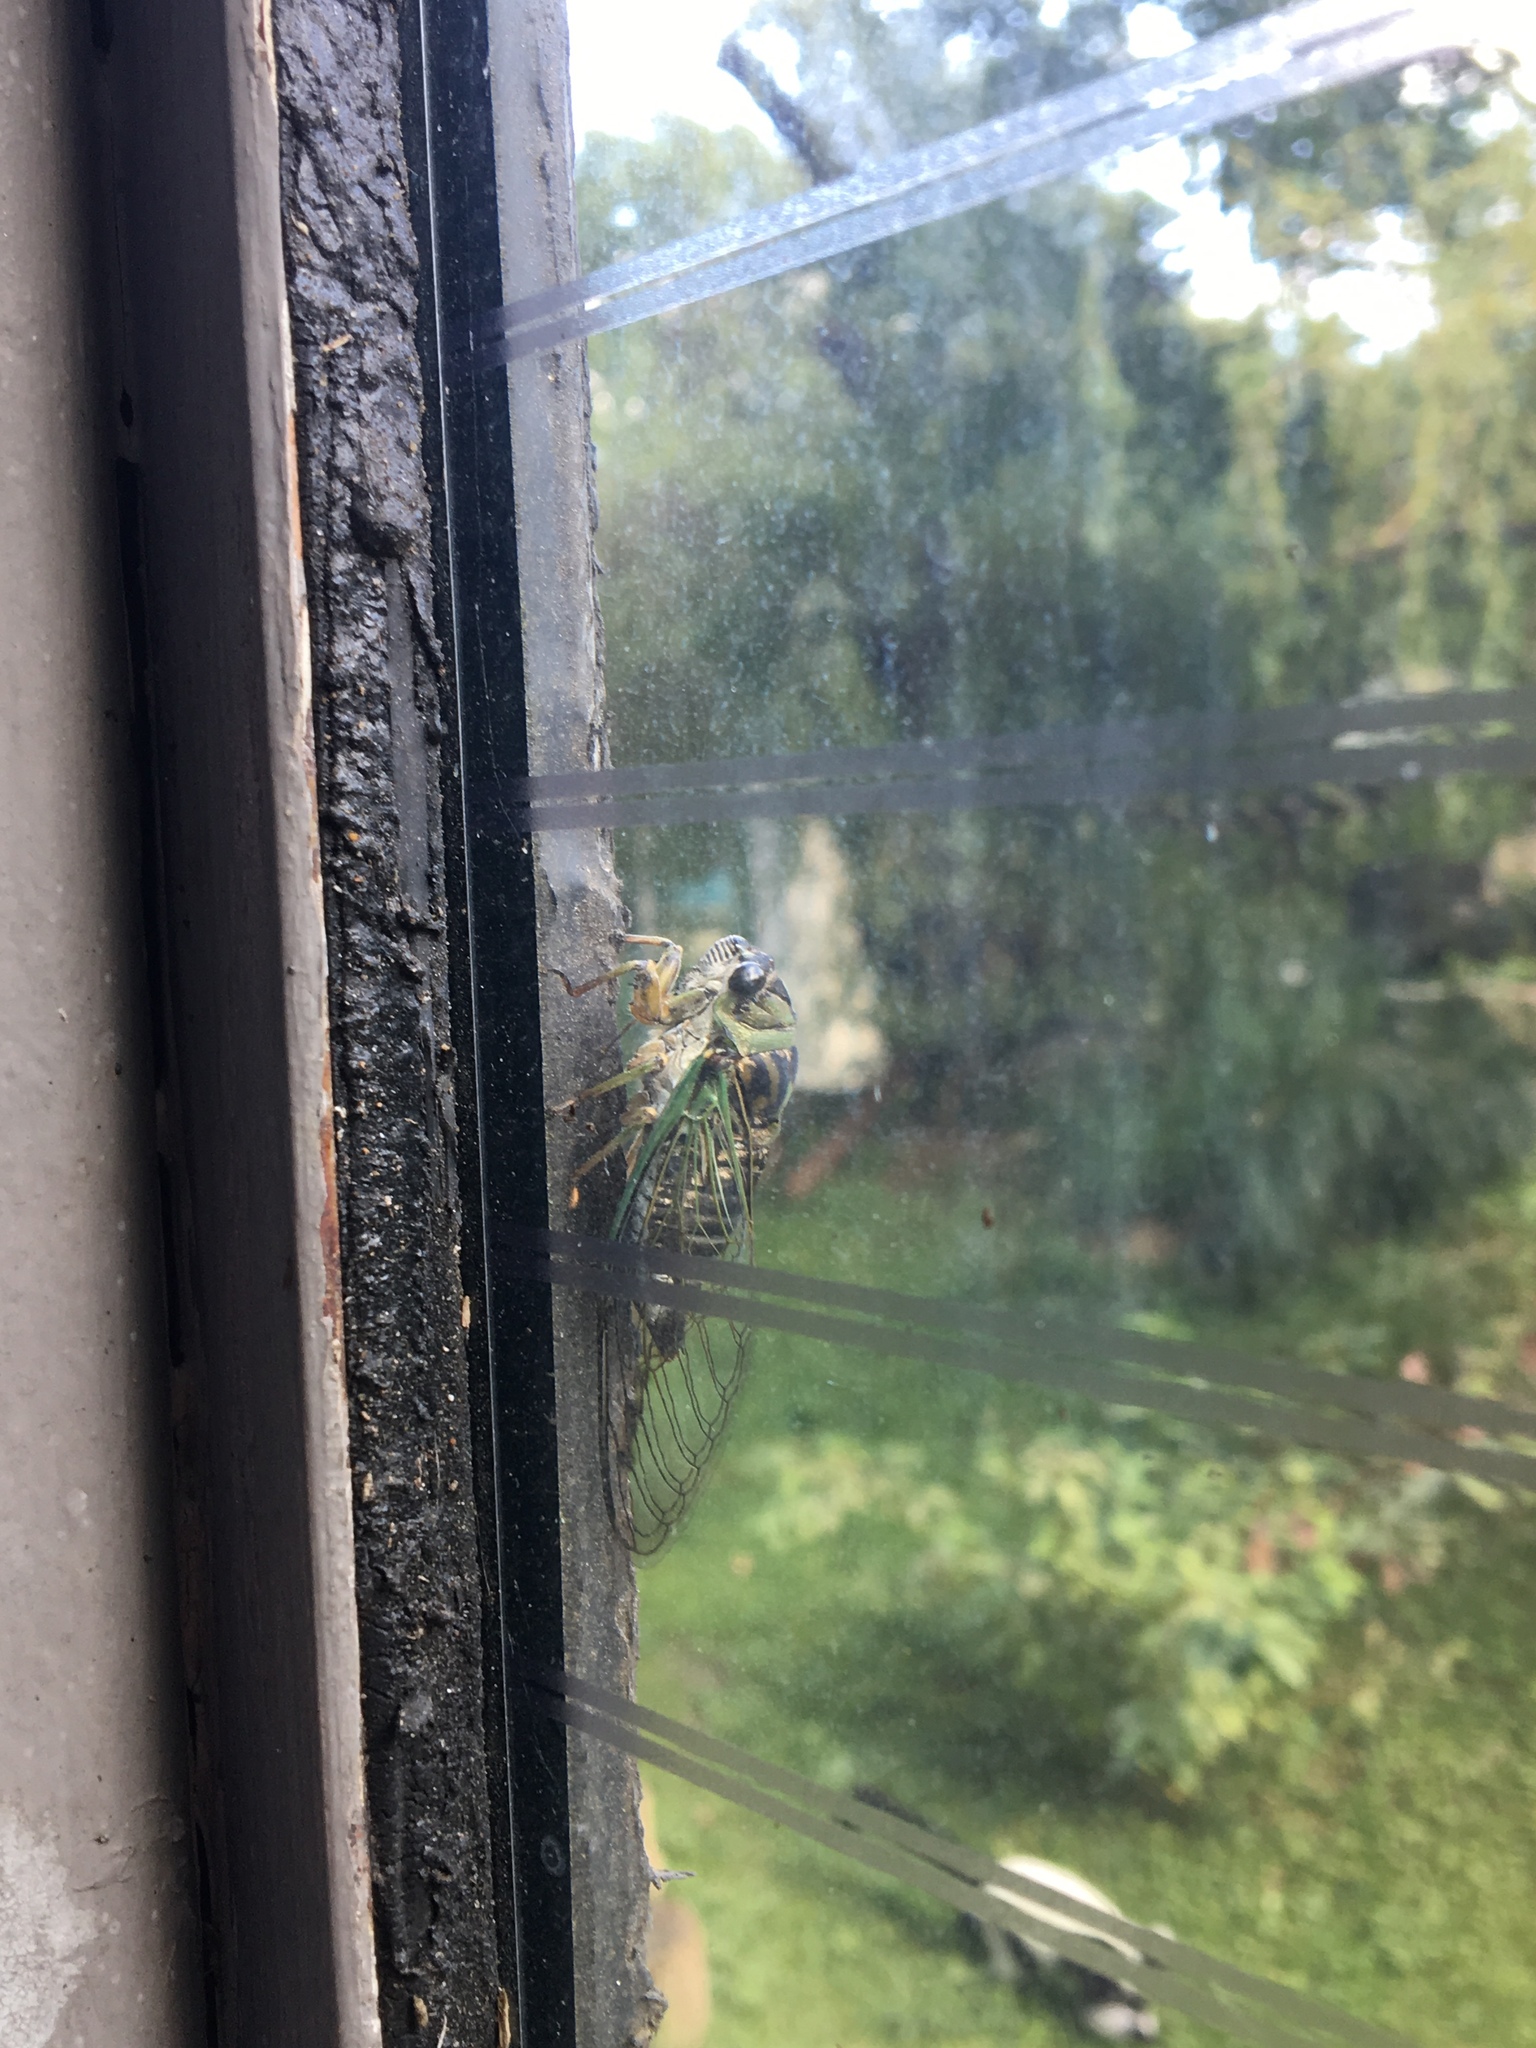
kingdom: Animalia
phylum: Arthropoda
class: Insecta
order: Hemiptera
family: Cicadidae
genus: Neotibicen
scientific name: Neotibicen linnei
